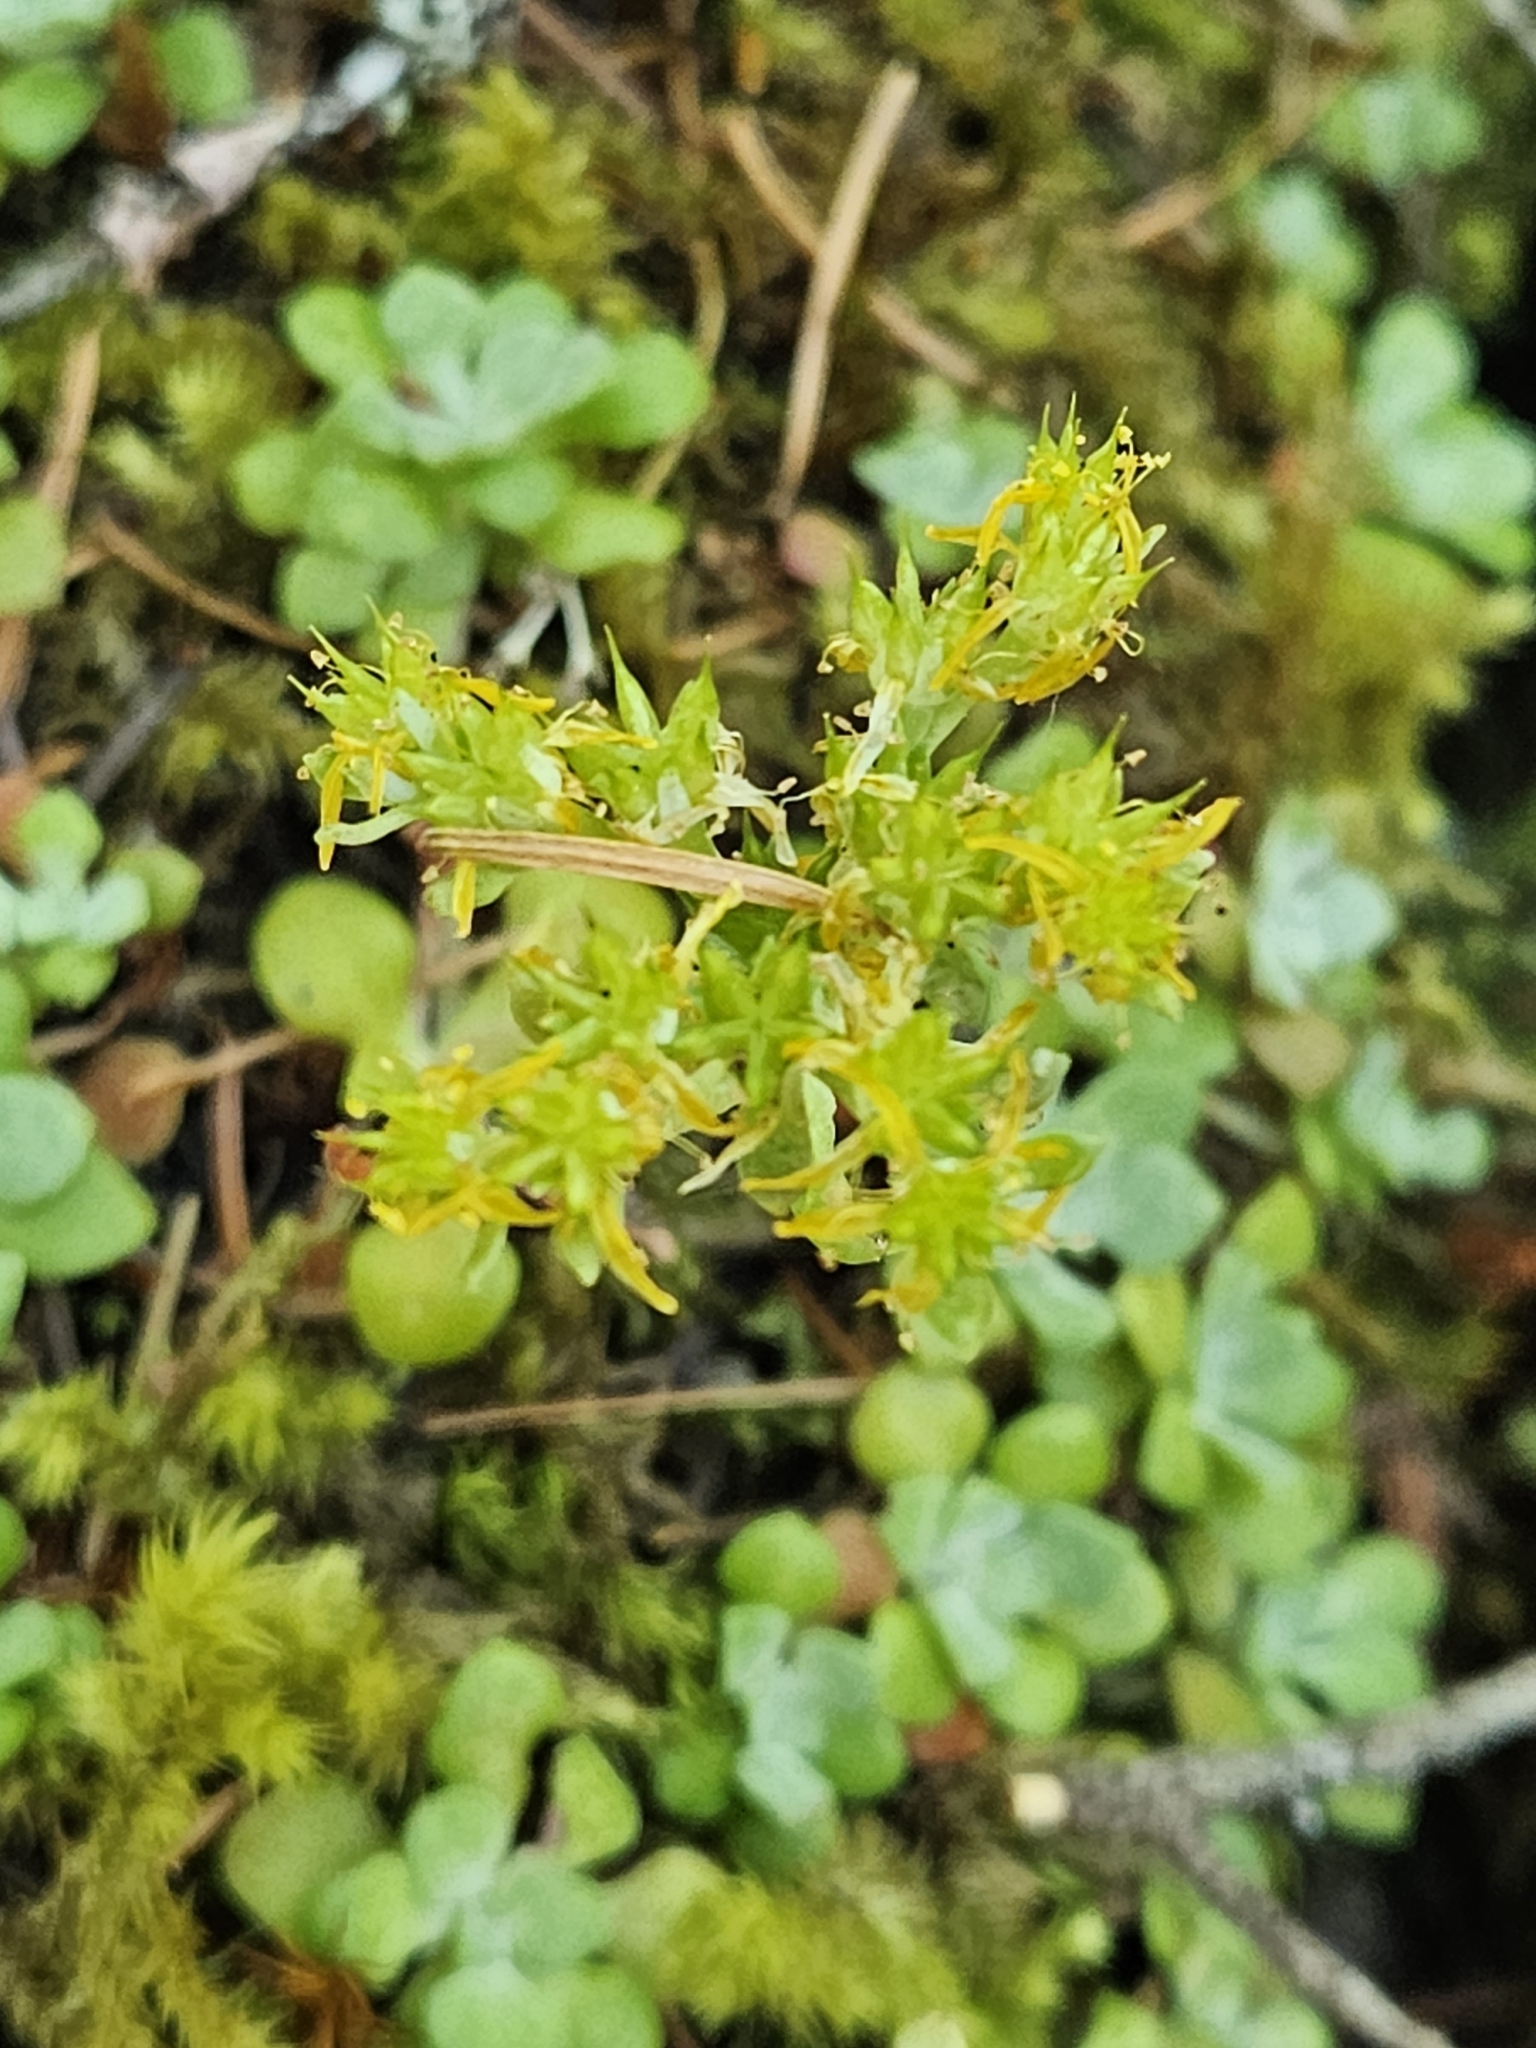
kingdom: Plantae
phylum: Tracheophyta
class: Magnoliopsida
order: Saxifragales
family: Crassulaceae
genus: Sedum
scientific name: Sedum spathulifolium
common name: Colorado stonecrop
